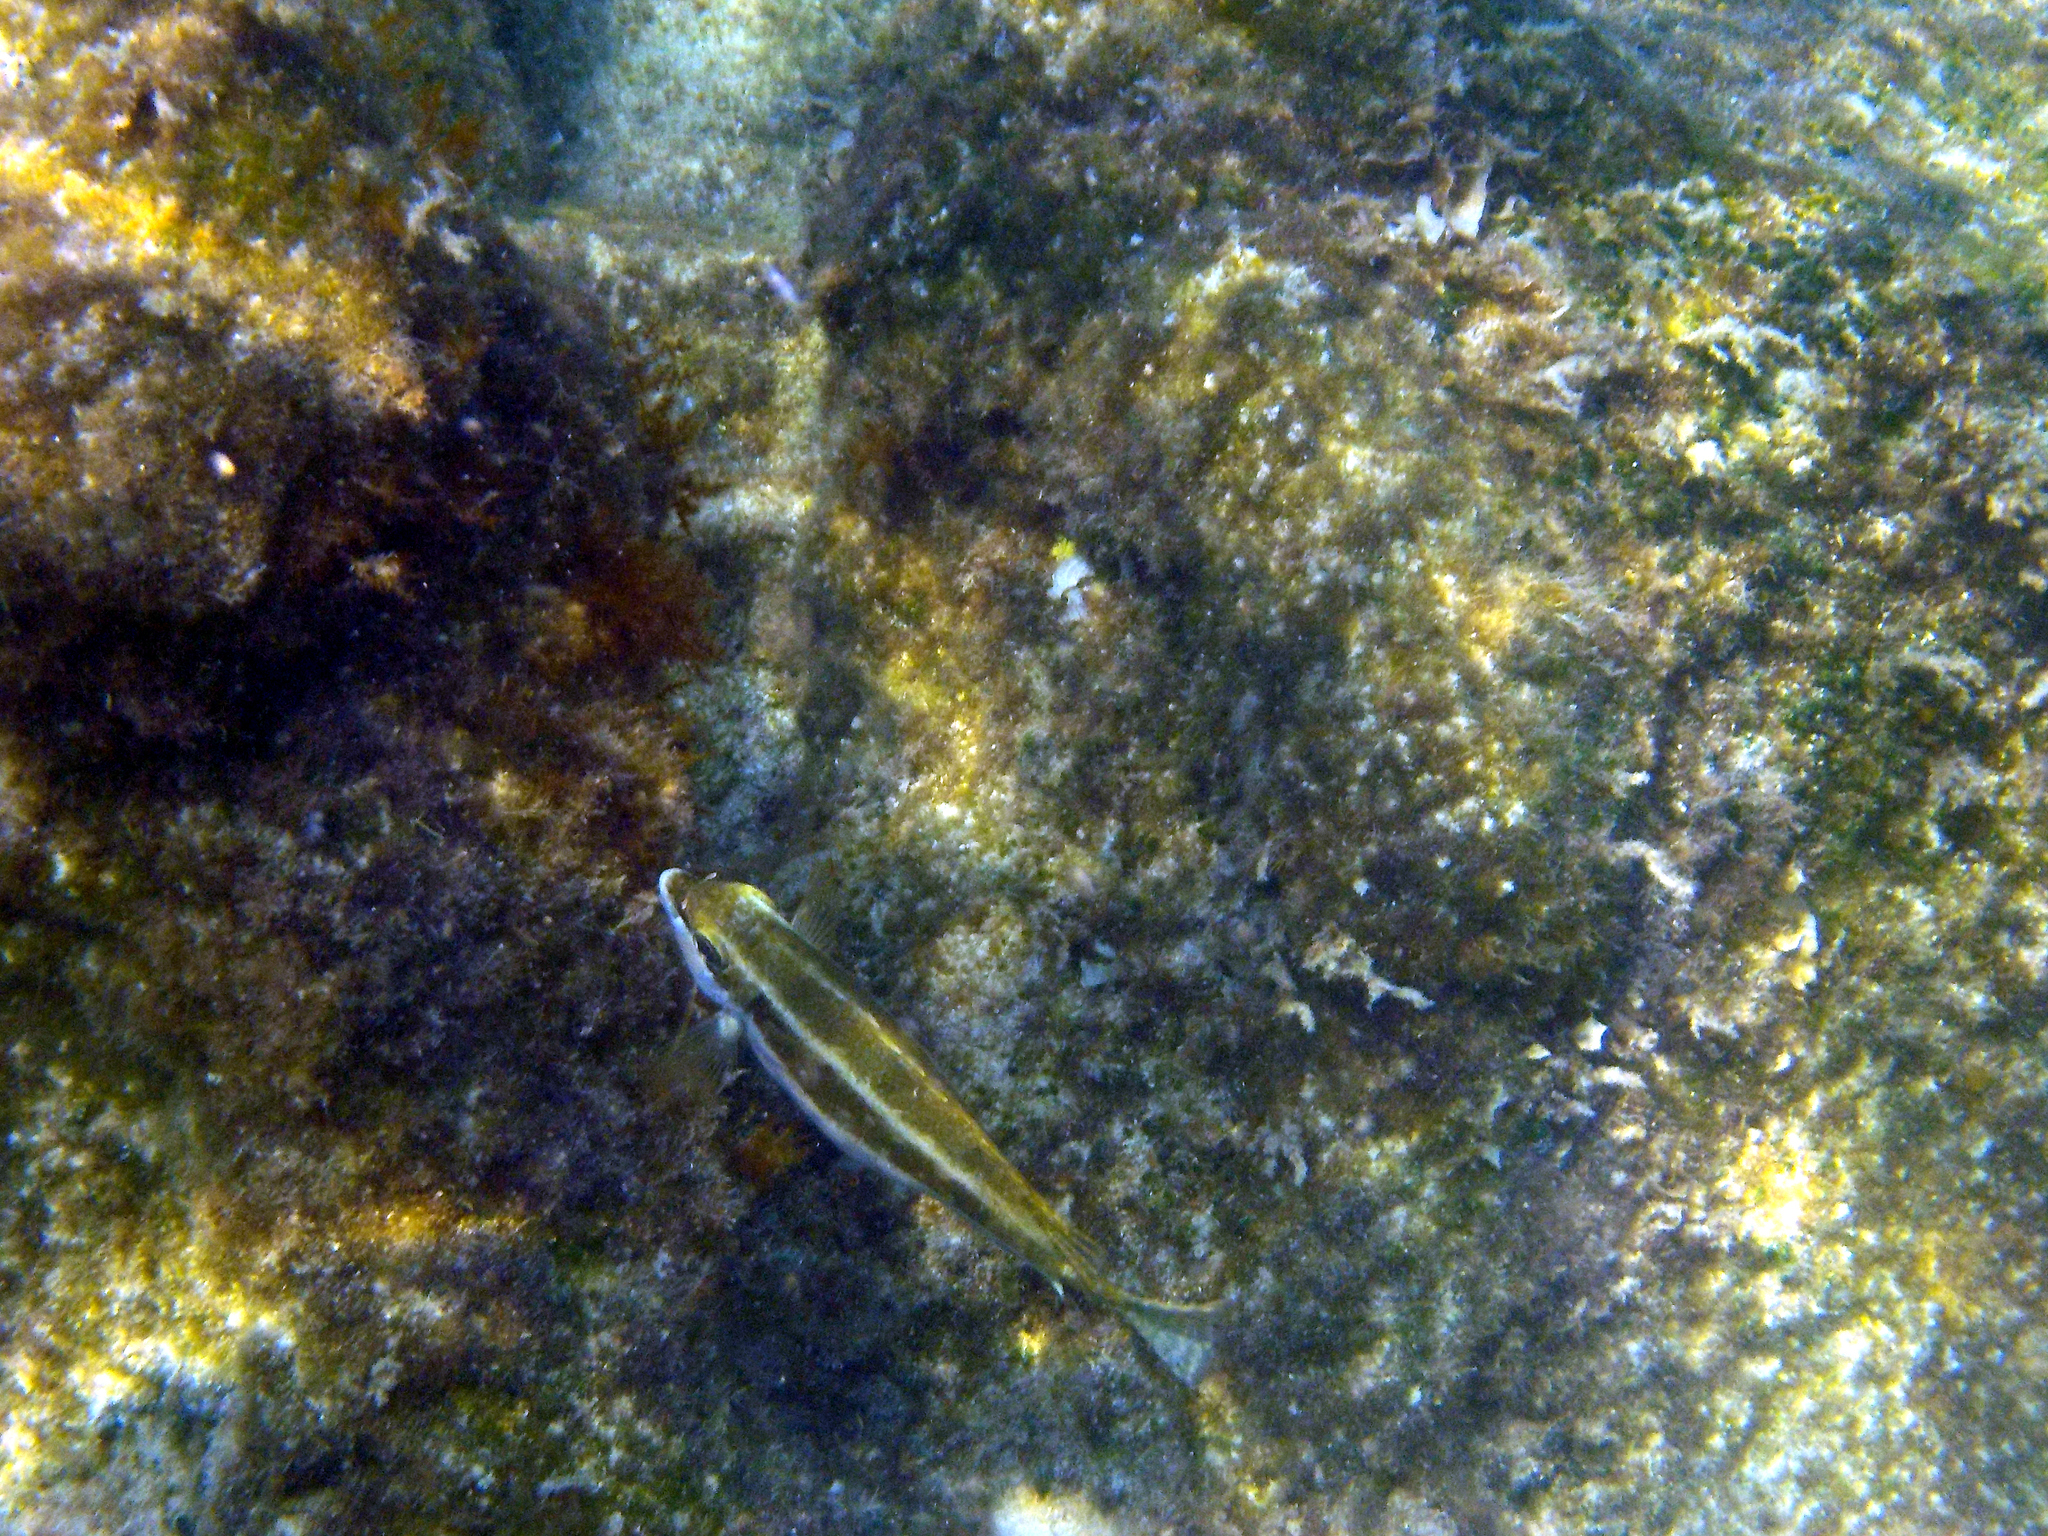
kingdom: Animalia
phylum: Chordata
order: Perciformes
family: Siganidae
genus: Siganus
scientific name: Siganus luridus
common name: Dusky spinefoot
